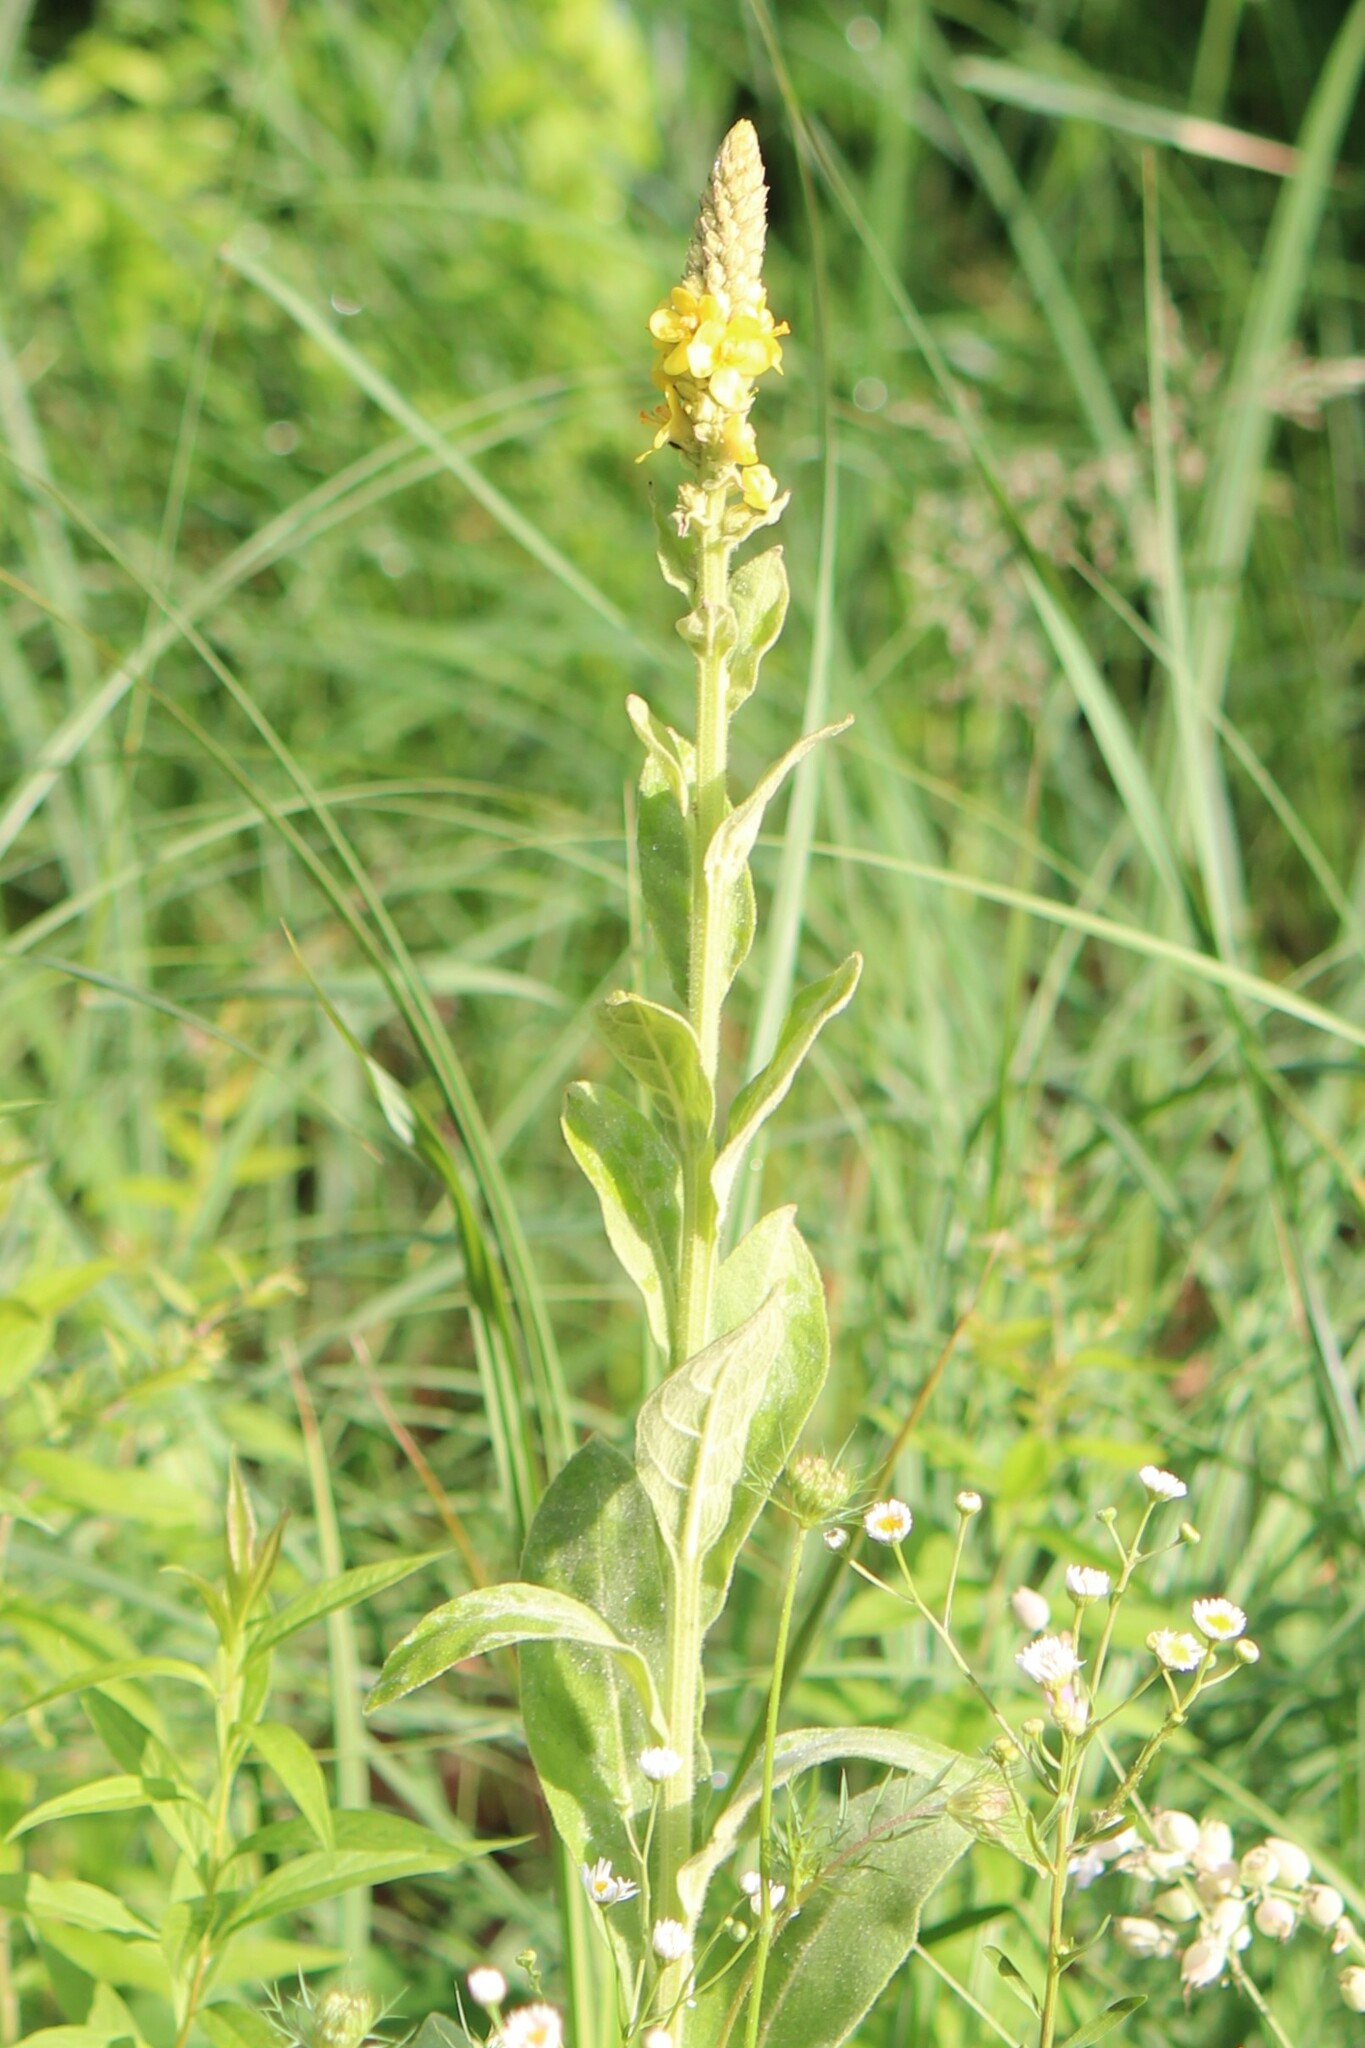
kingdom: Plantae
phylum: Tracheophyta
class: Magnoliopsida
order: Lamiales
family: Scrophulariaceae
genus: Verbascum
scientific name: Verbascum thapsus
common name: Common mullein
